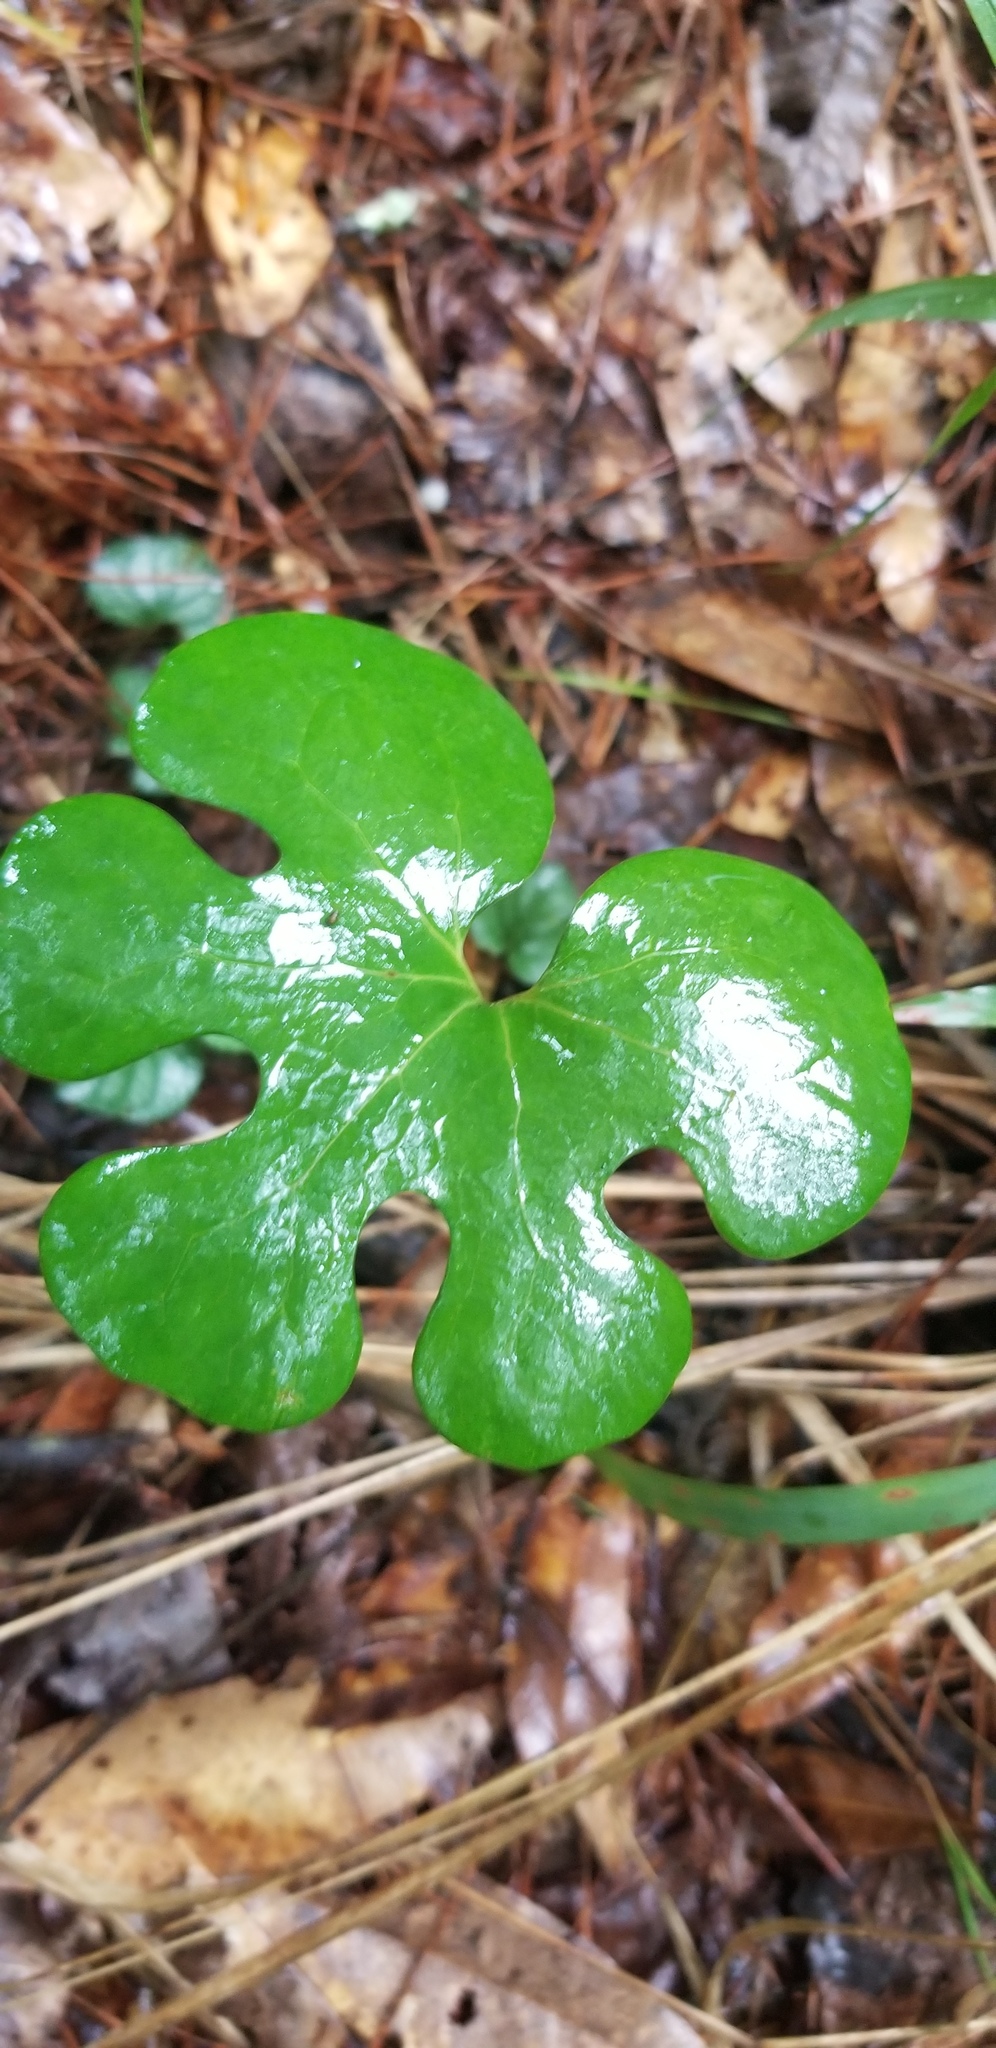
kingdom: Plantae
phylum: Tracheophyta
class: Magnoliopsida
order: Ranunculales
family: Papaveraceae
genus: Sanguinaria
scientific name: Sanguinaria canadensis
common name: Bloodroot
